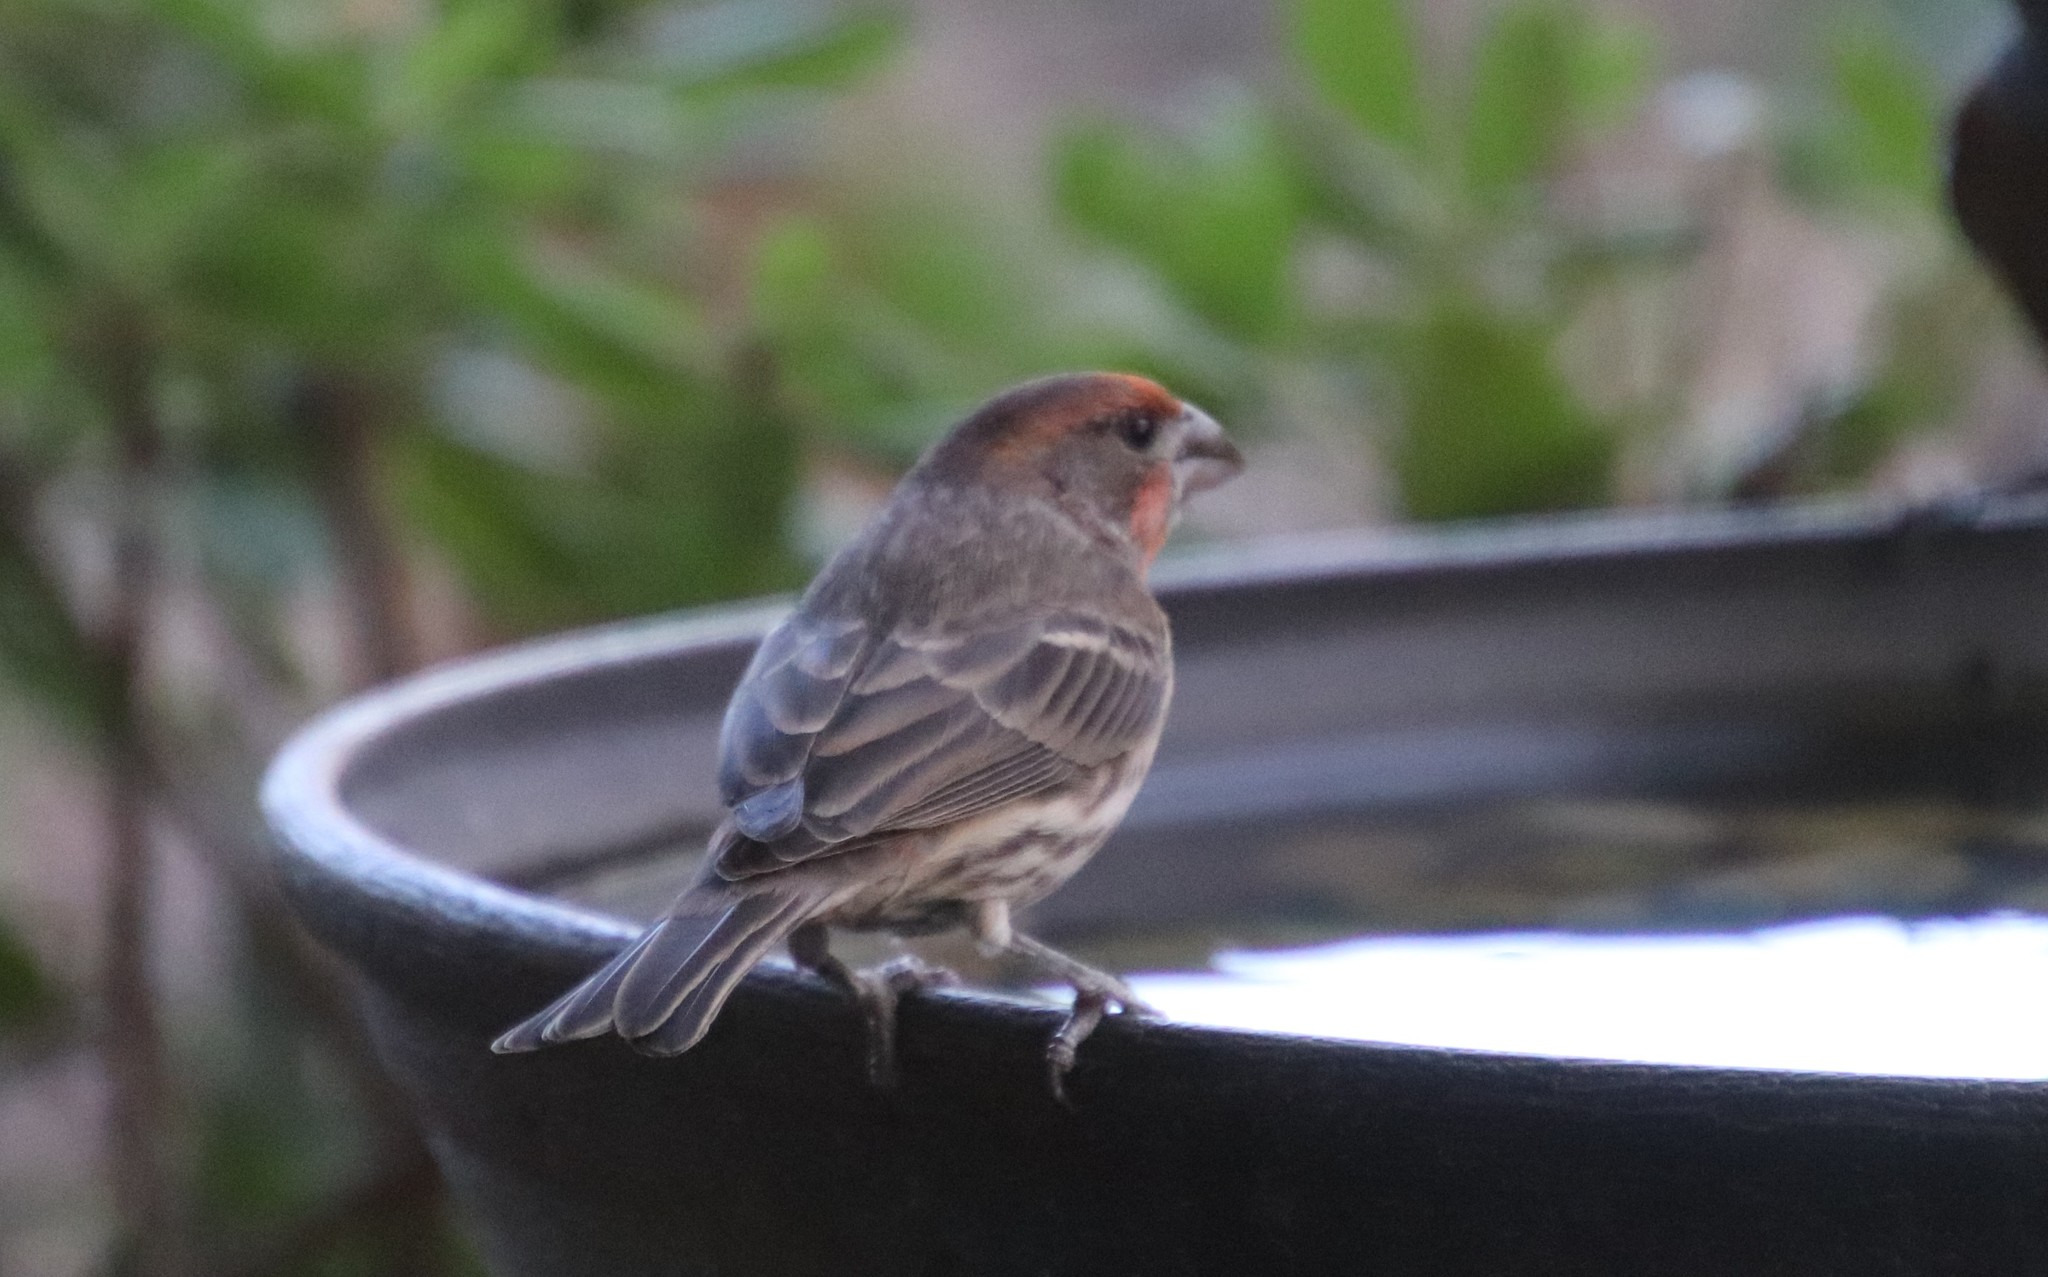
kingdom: Animalia
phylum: Chordata
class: Aves
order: Passeriformes
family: Fringillidae
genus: Haemorhous
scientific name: Haemorhous mexicanus
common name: House finch
